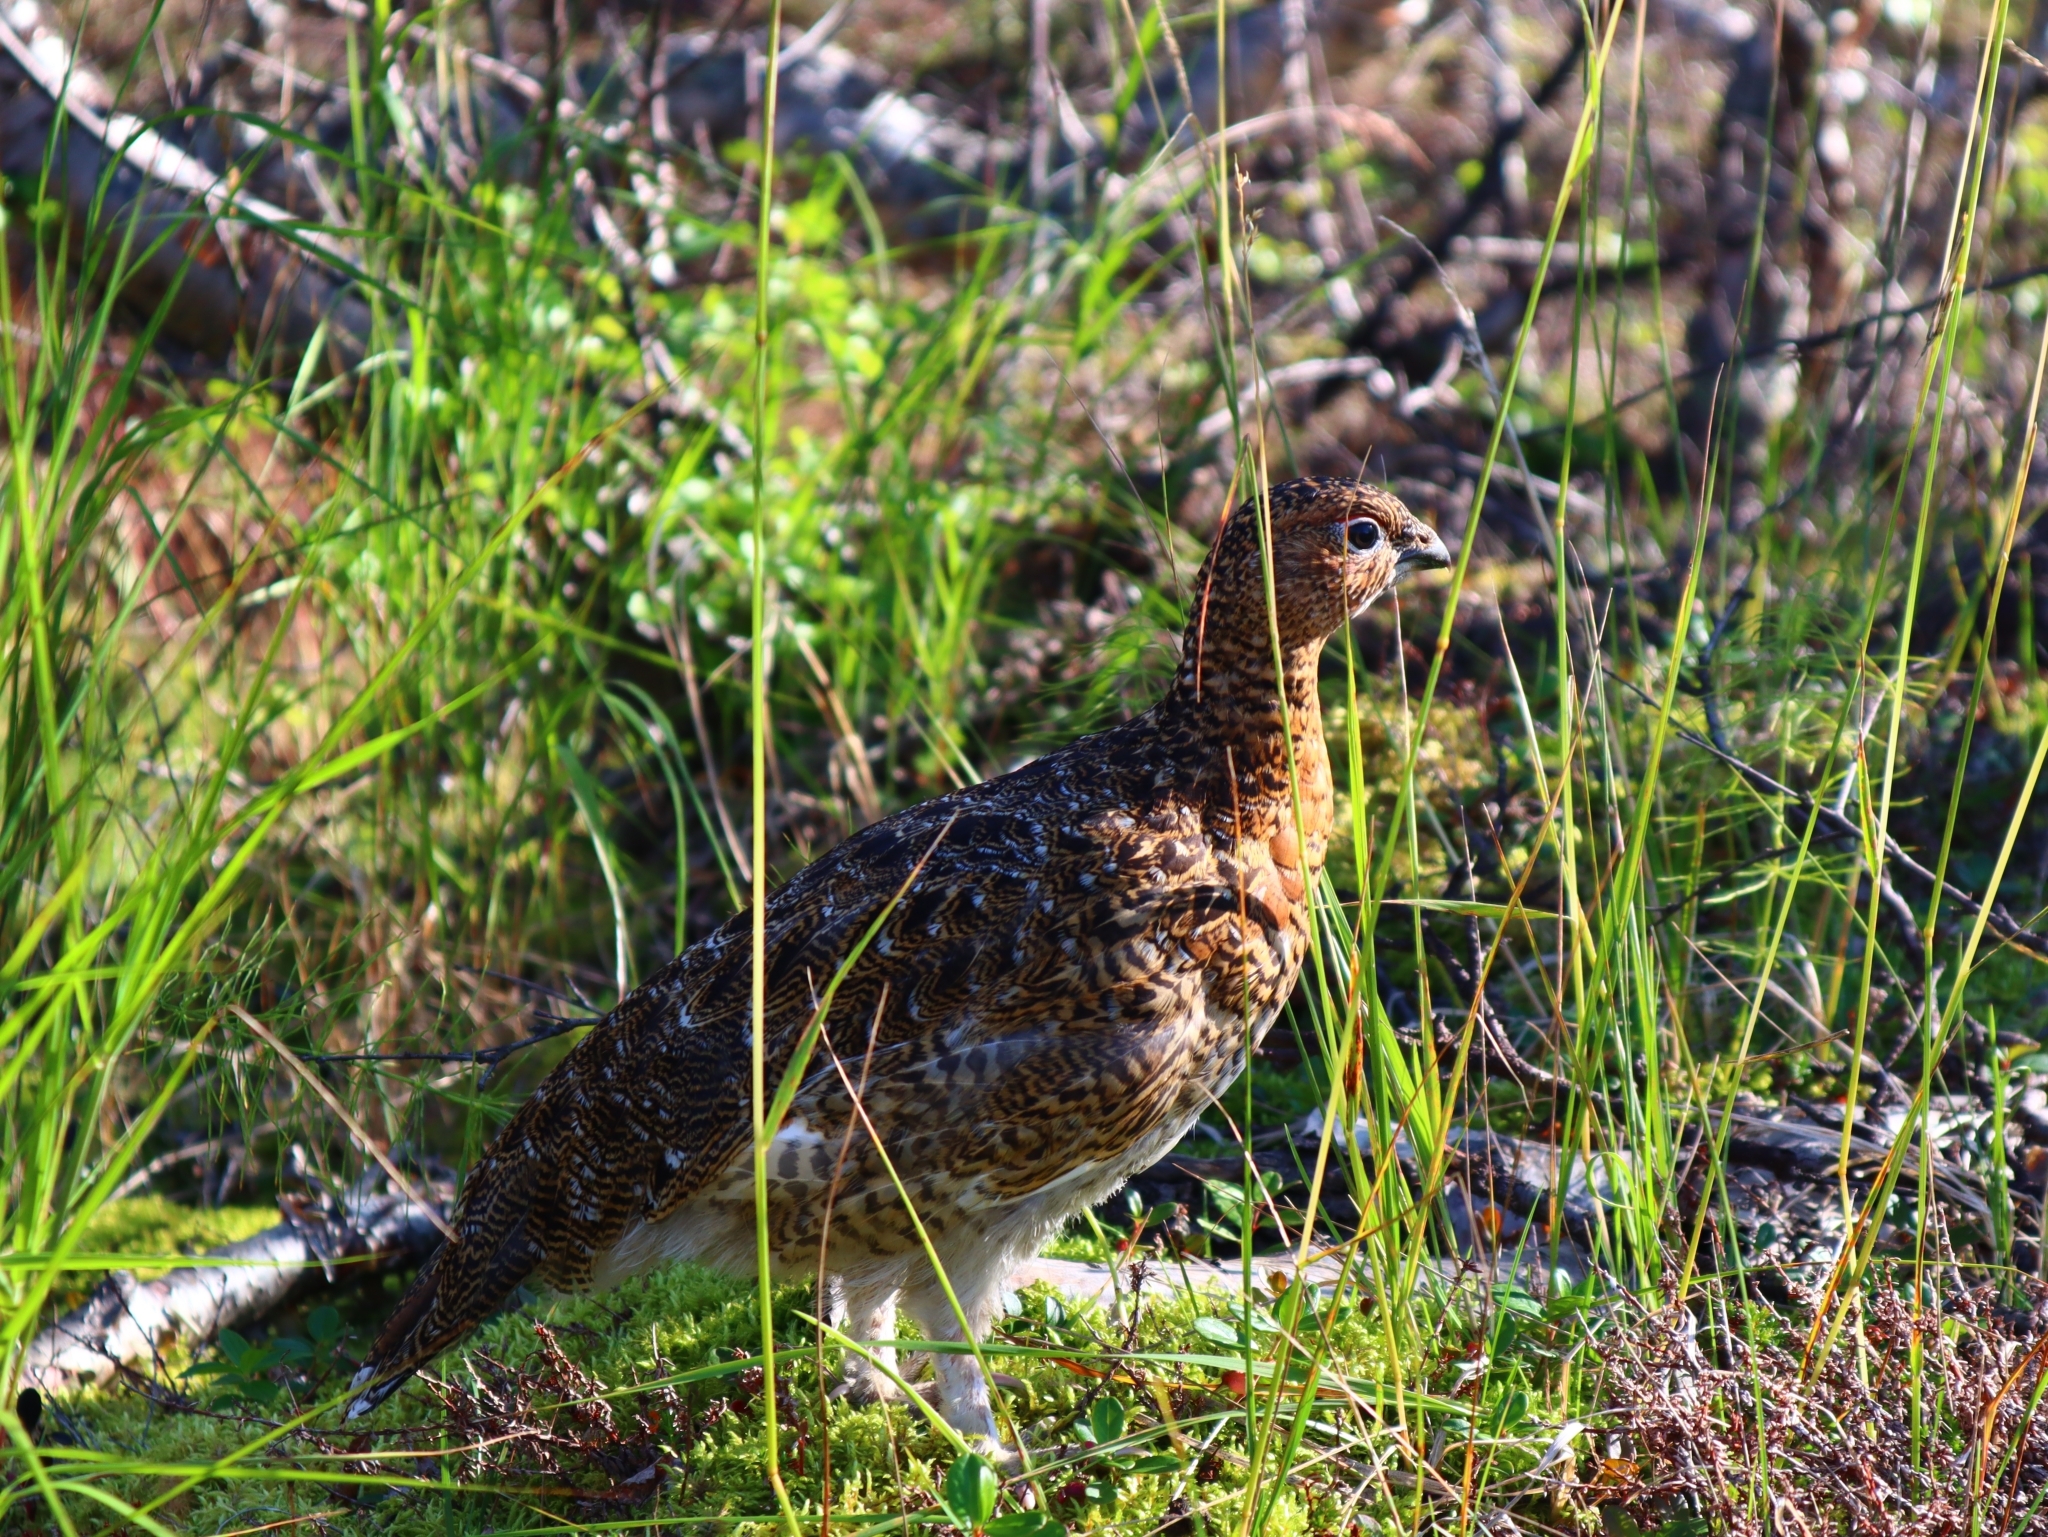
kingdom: Animalia
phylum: Chordata
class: Aves
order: Galliformes
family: Phasianidae
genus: Lagopus
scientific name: Lagopus lagopus
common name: Willow ptarmigan
